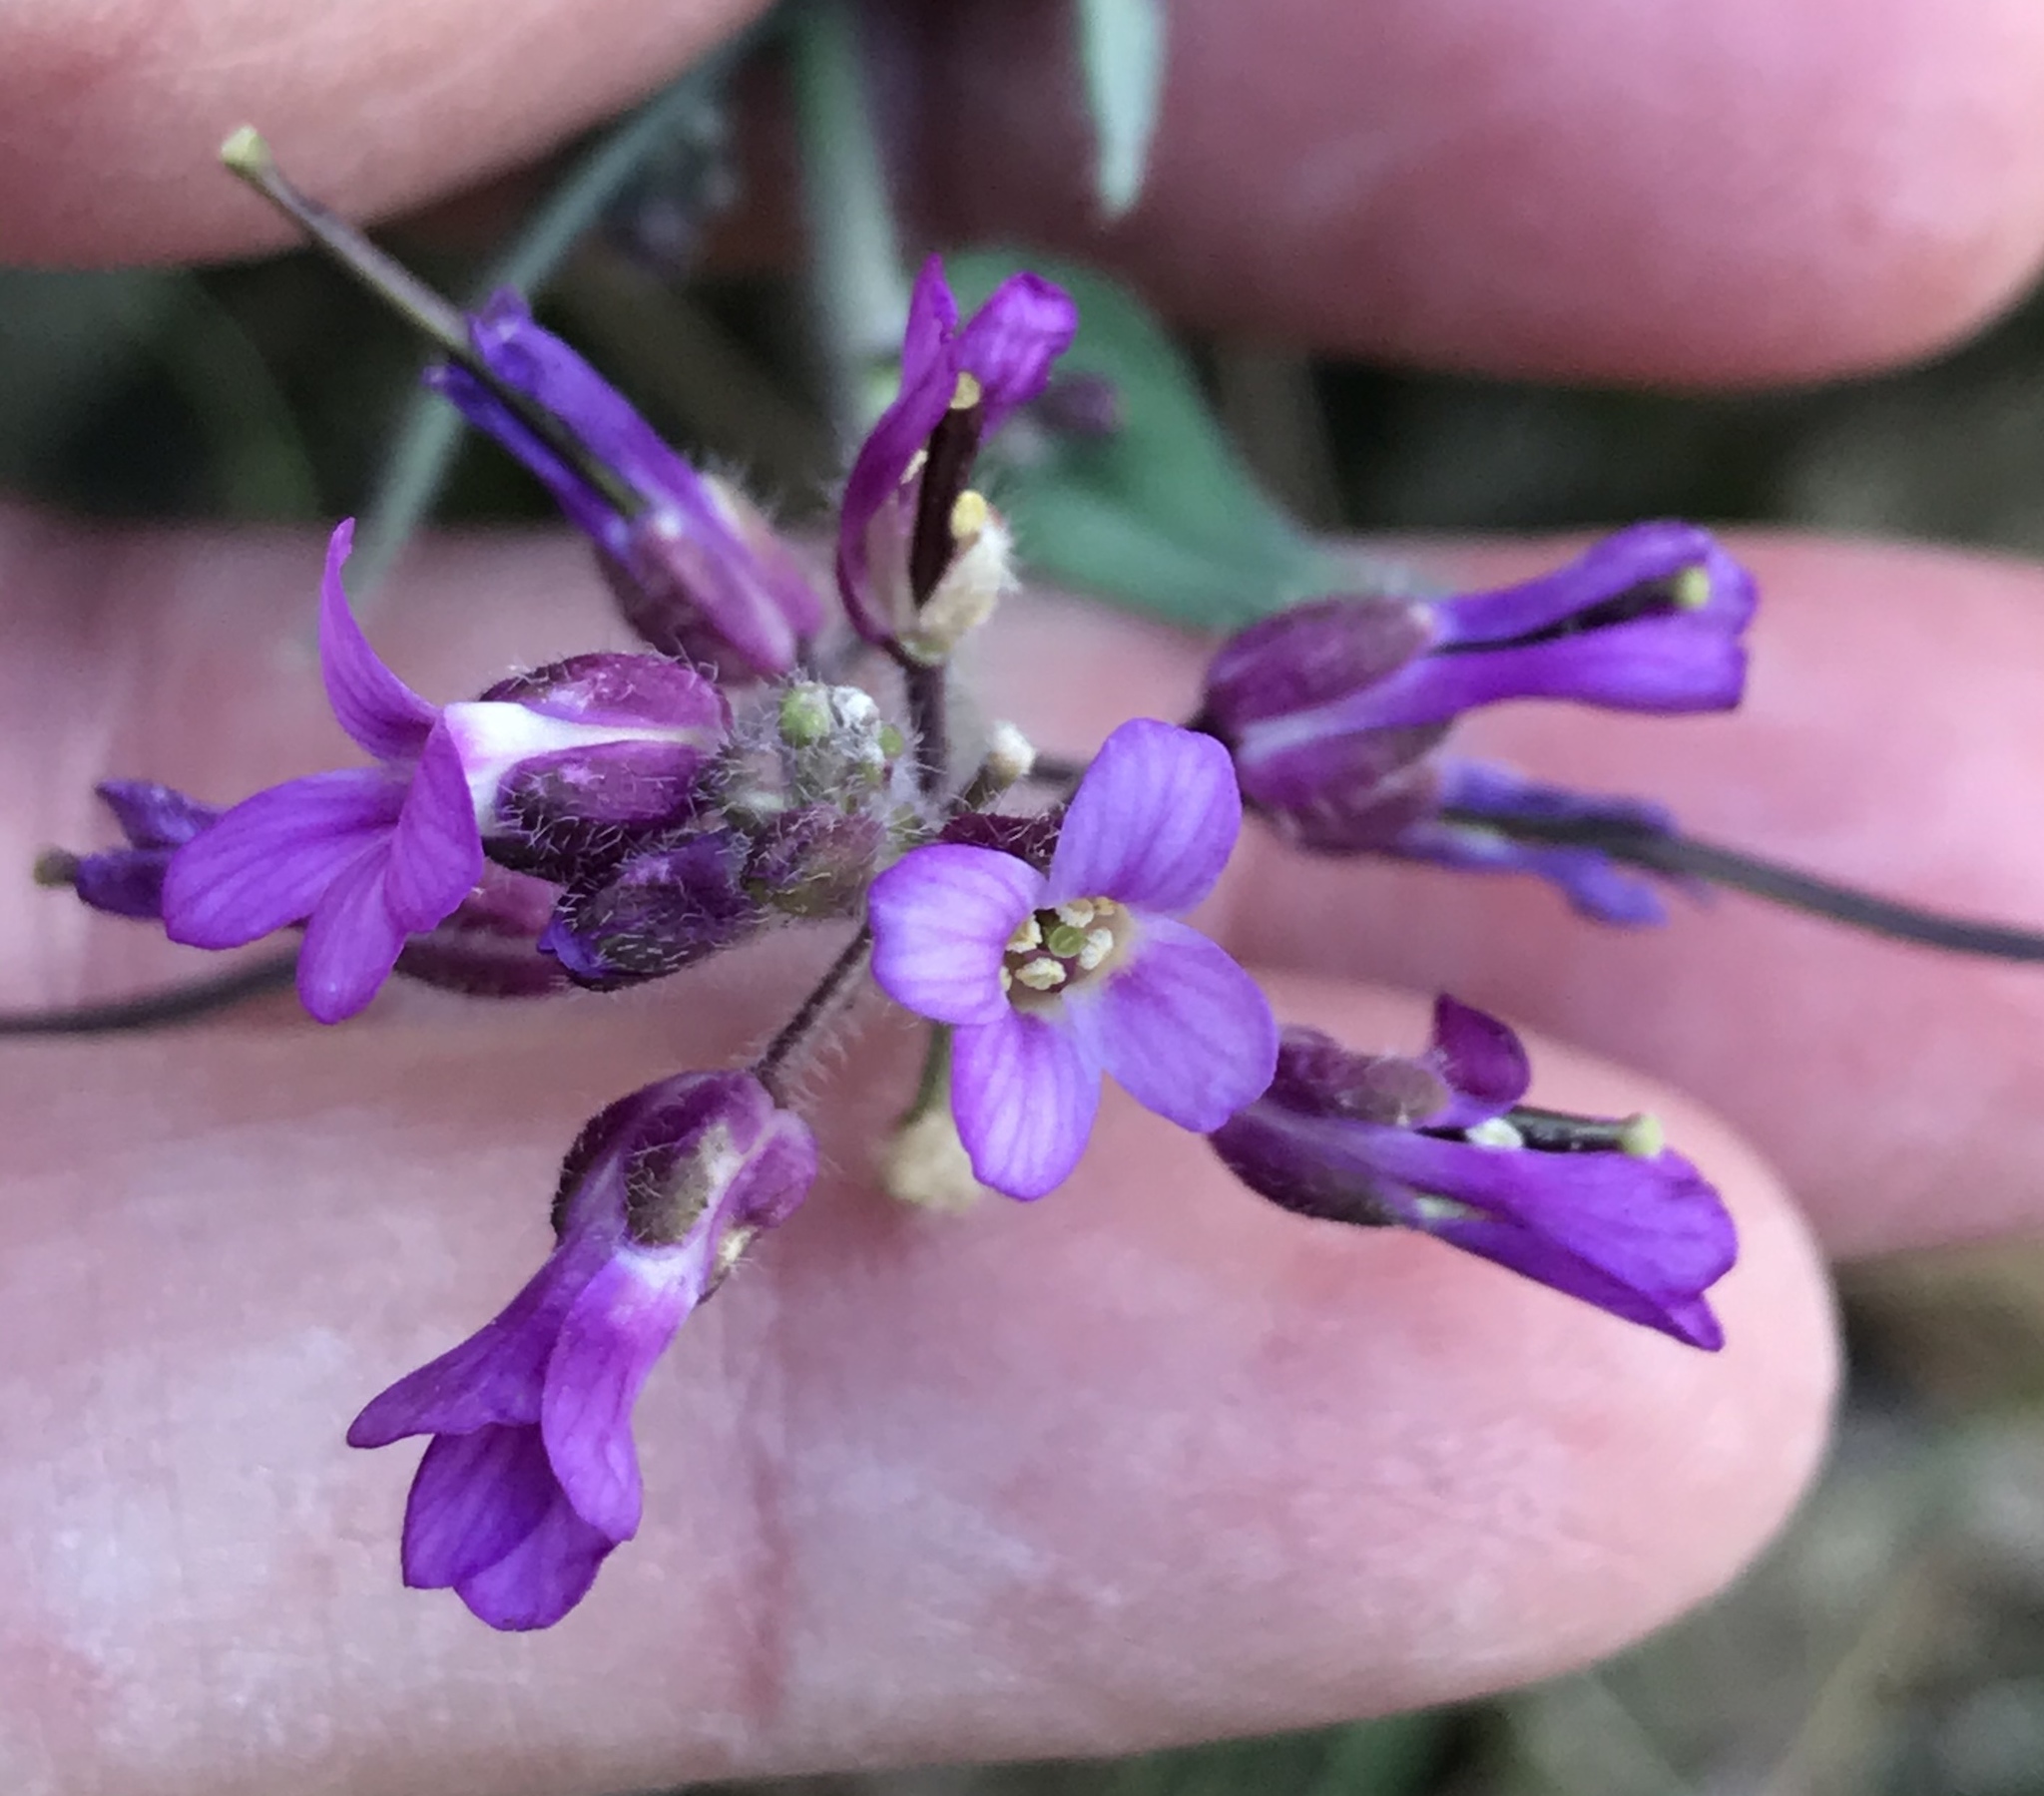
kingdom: Plantae
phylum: Tracheophyta
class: Magnoliopsida
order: Brassicales
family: Brassicaceae
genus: Boechera
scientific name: Boechera breweri
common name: Brewer's rockcress
